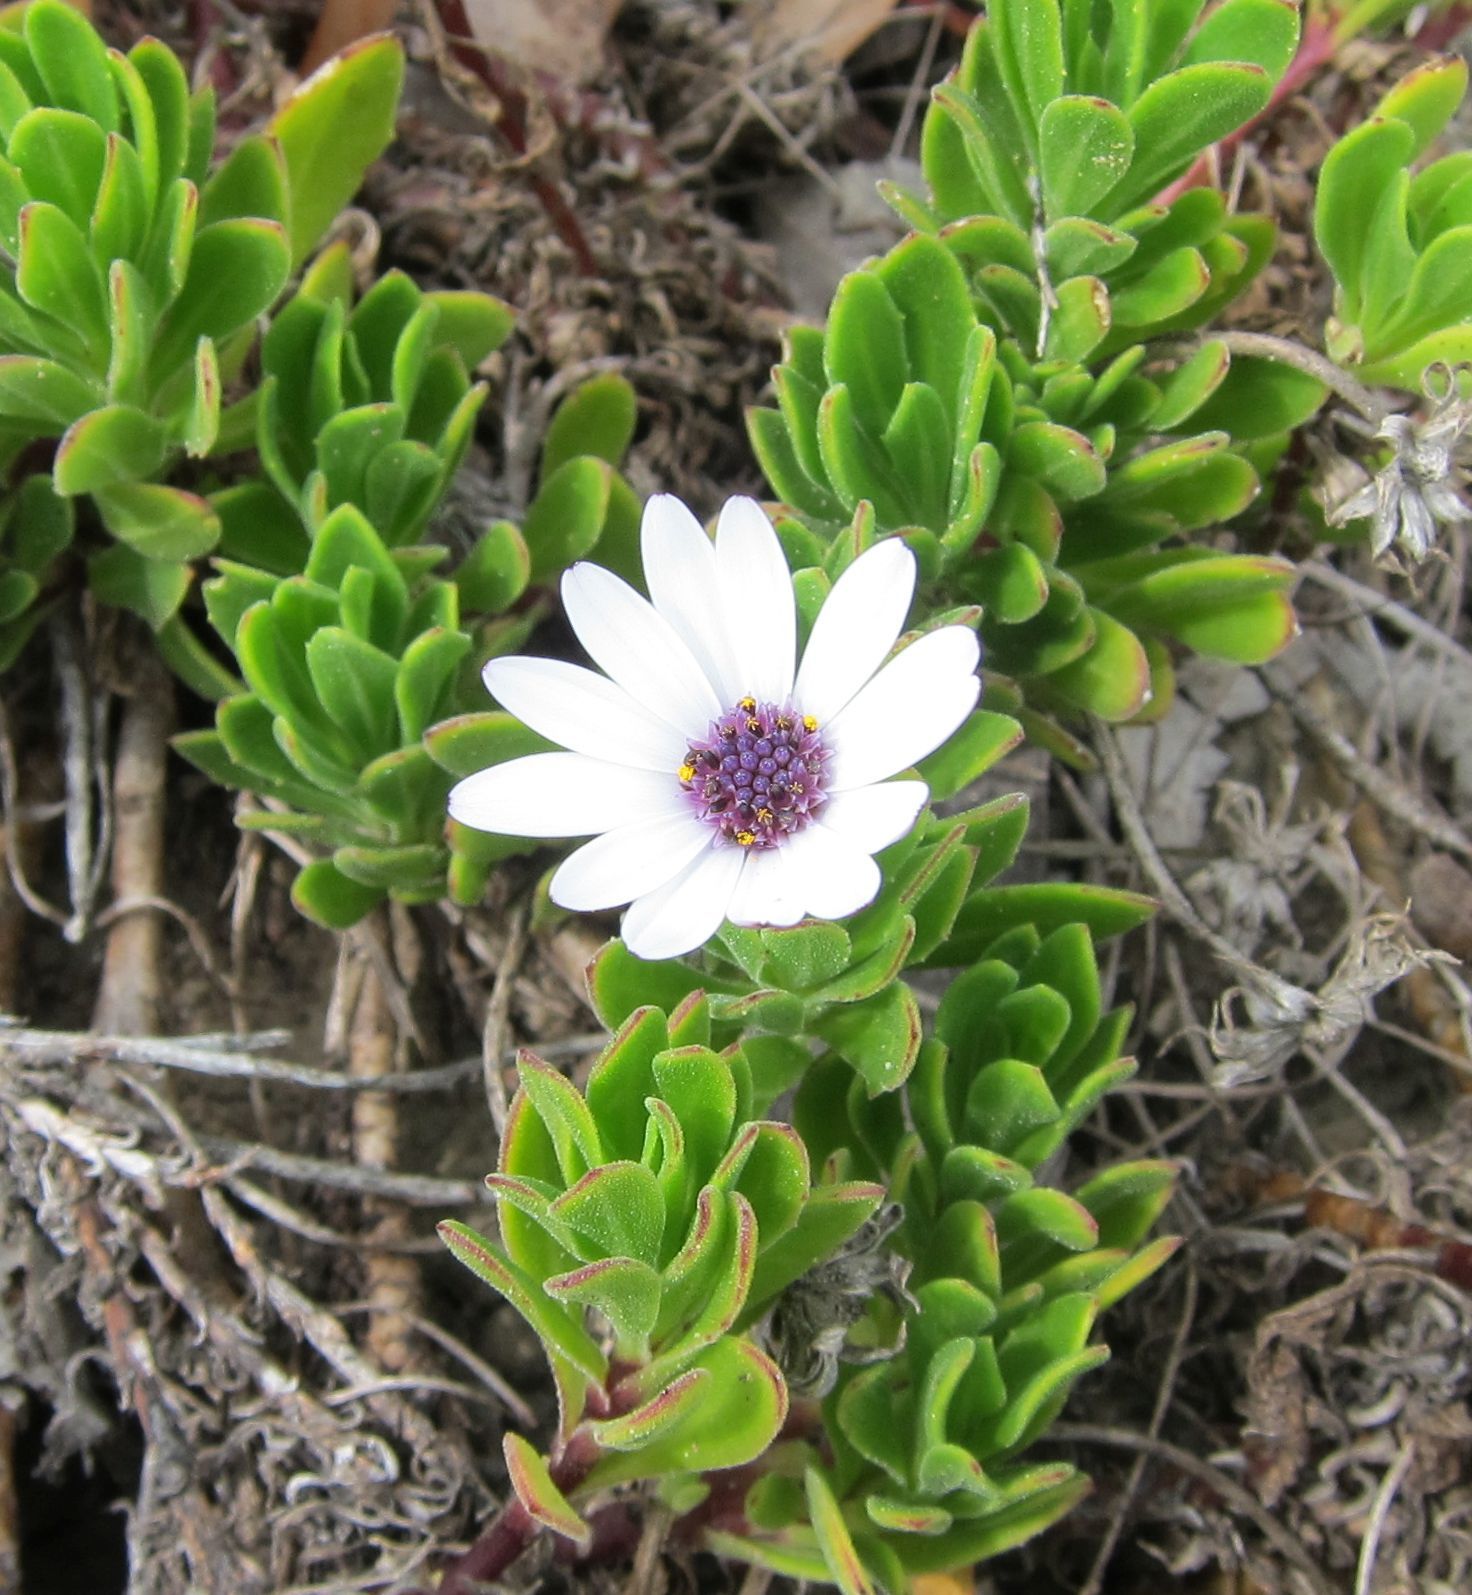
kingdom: Plantae
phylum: Tracheophyta
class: Magnoliopsida
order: Asterales
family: Asteraceae
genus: Dimorphotheca
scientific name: Dimorphotheca fruticosa
